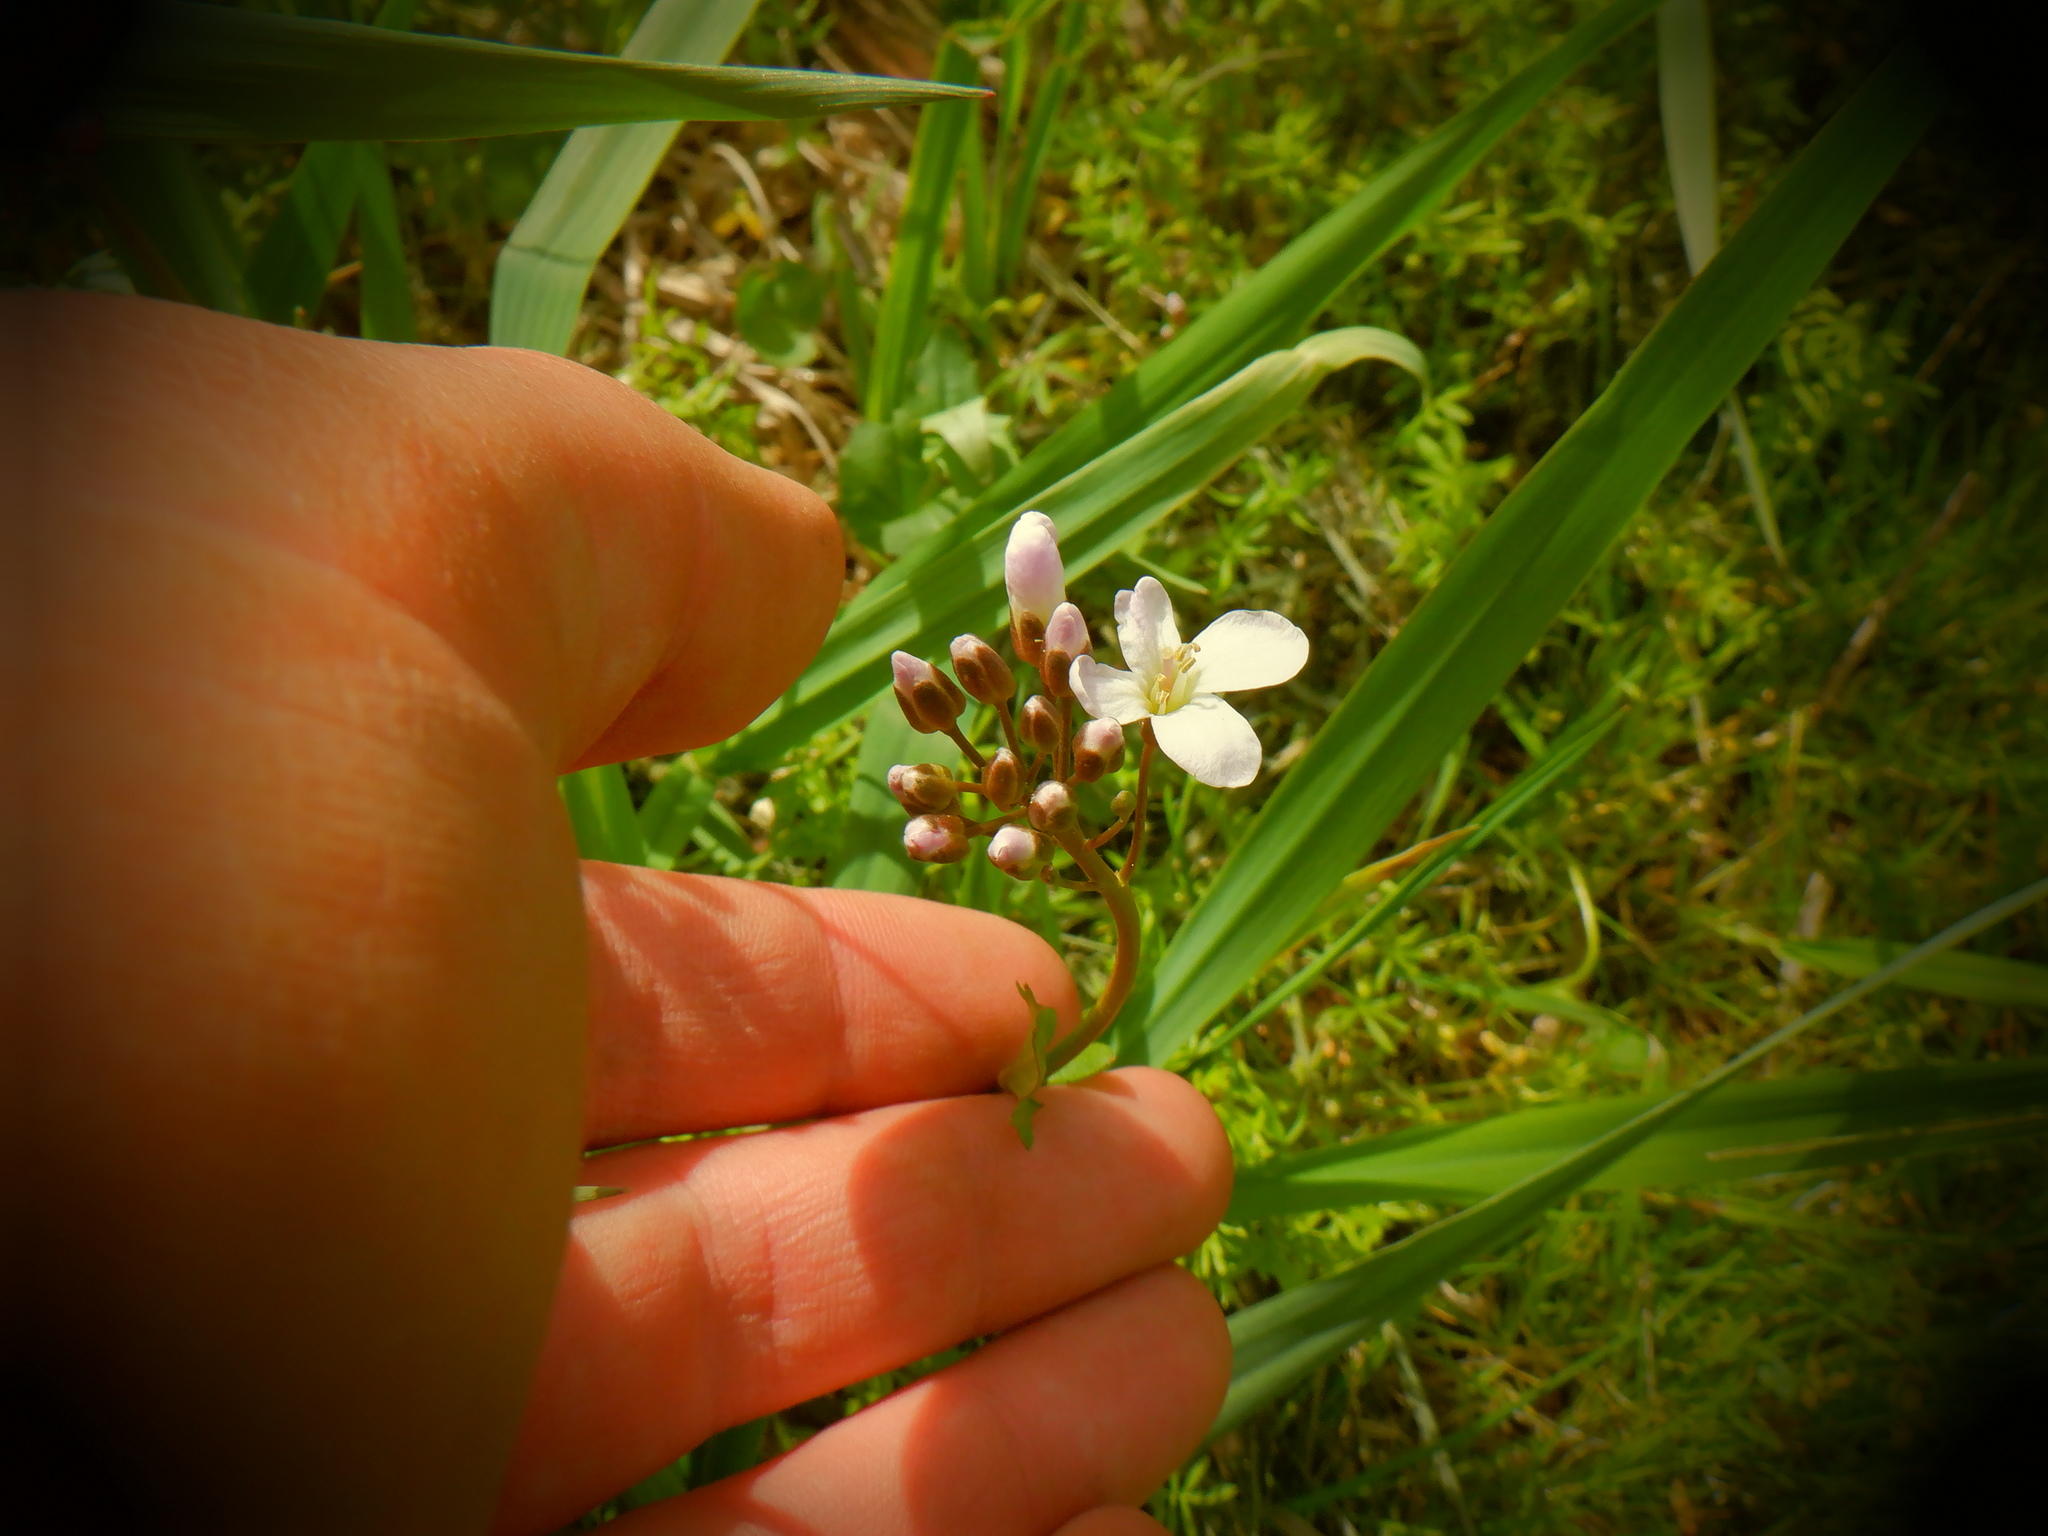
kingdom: Plantae
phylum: Tracheophyta
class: Magnoliopsida
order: Brassicales
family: Brassicaceae
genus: Cardamine
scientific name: Cardamine pratensis
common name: Cuckoo flower
